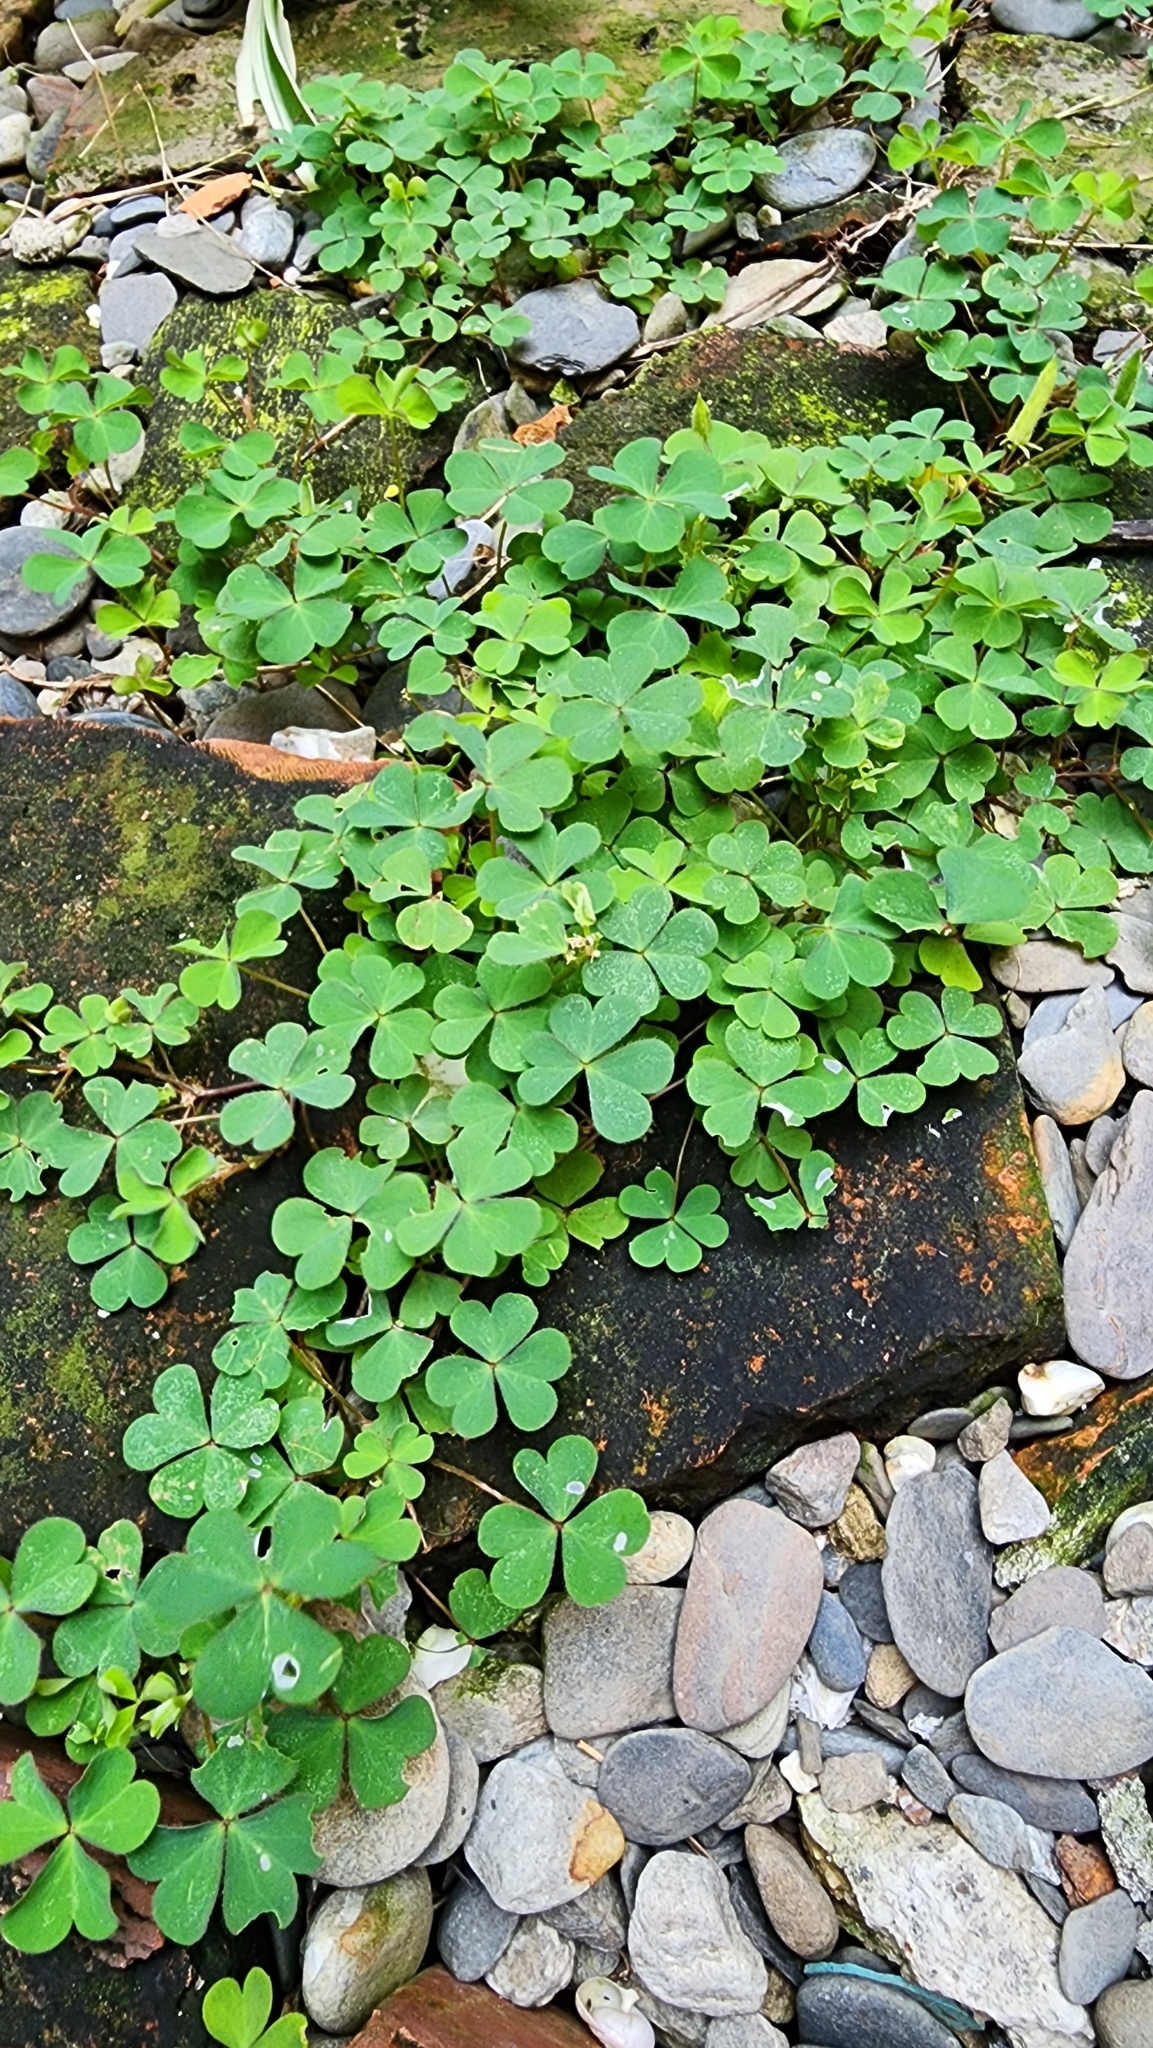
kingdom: Plantae
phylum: Tracheophyta
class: Magnoliopsida
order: Oxalidales
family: Oxalidaceae
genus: Oxalis
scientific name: Oxalis corniculata
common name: Procumbent yellow-sorrel
